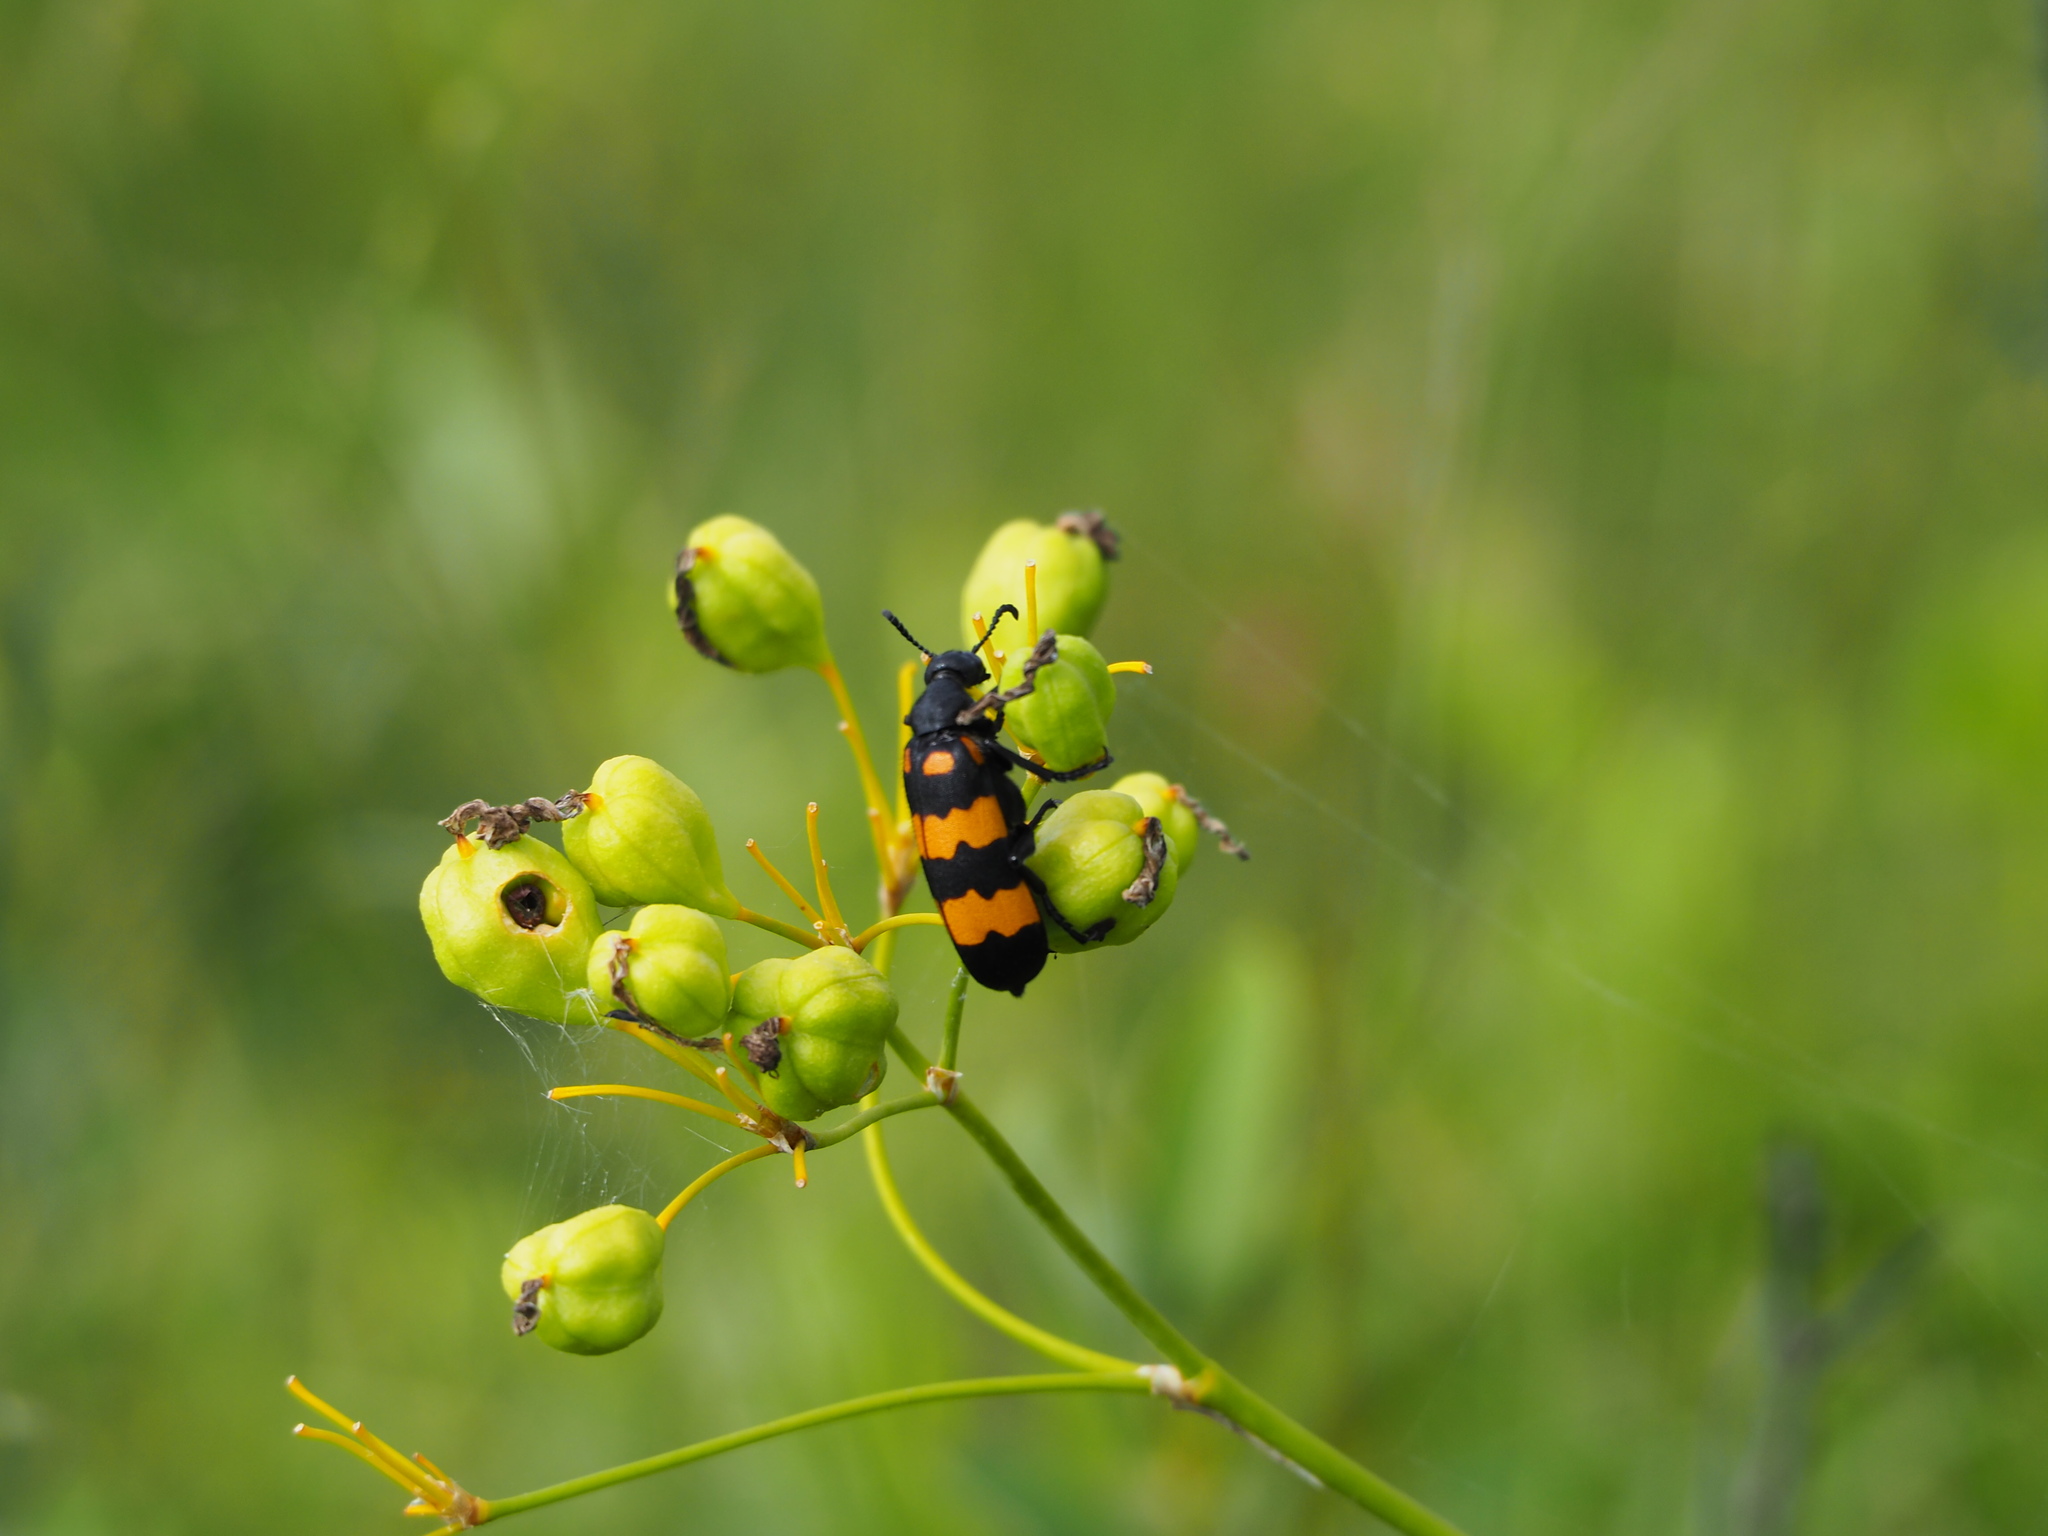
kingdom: Animalia
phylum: Arthropoda
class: Insecta
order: Coleoptera
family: Meloidae
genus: Hycleus
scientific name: Hycleus phaleratus
